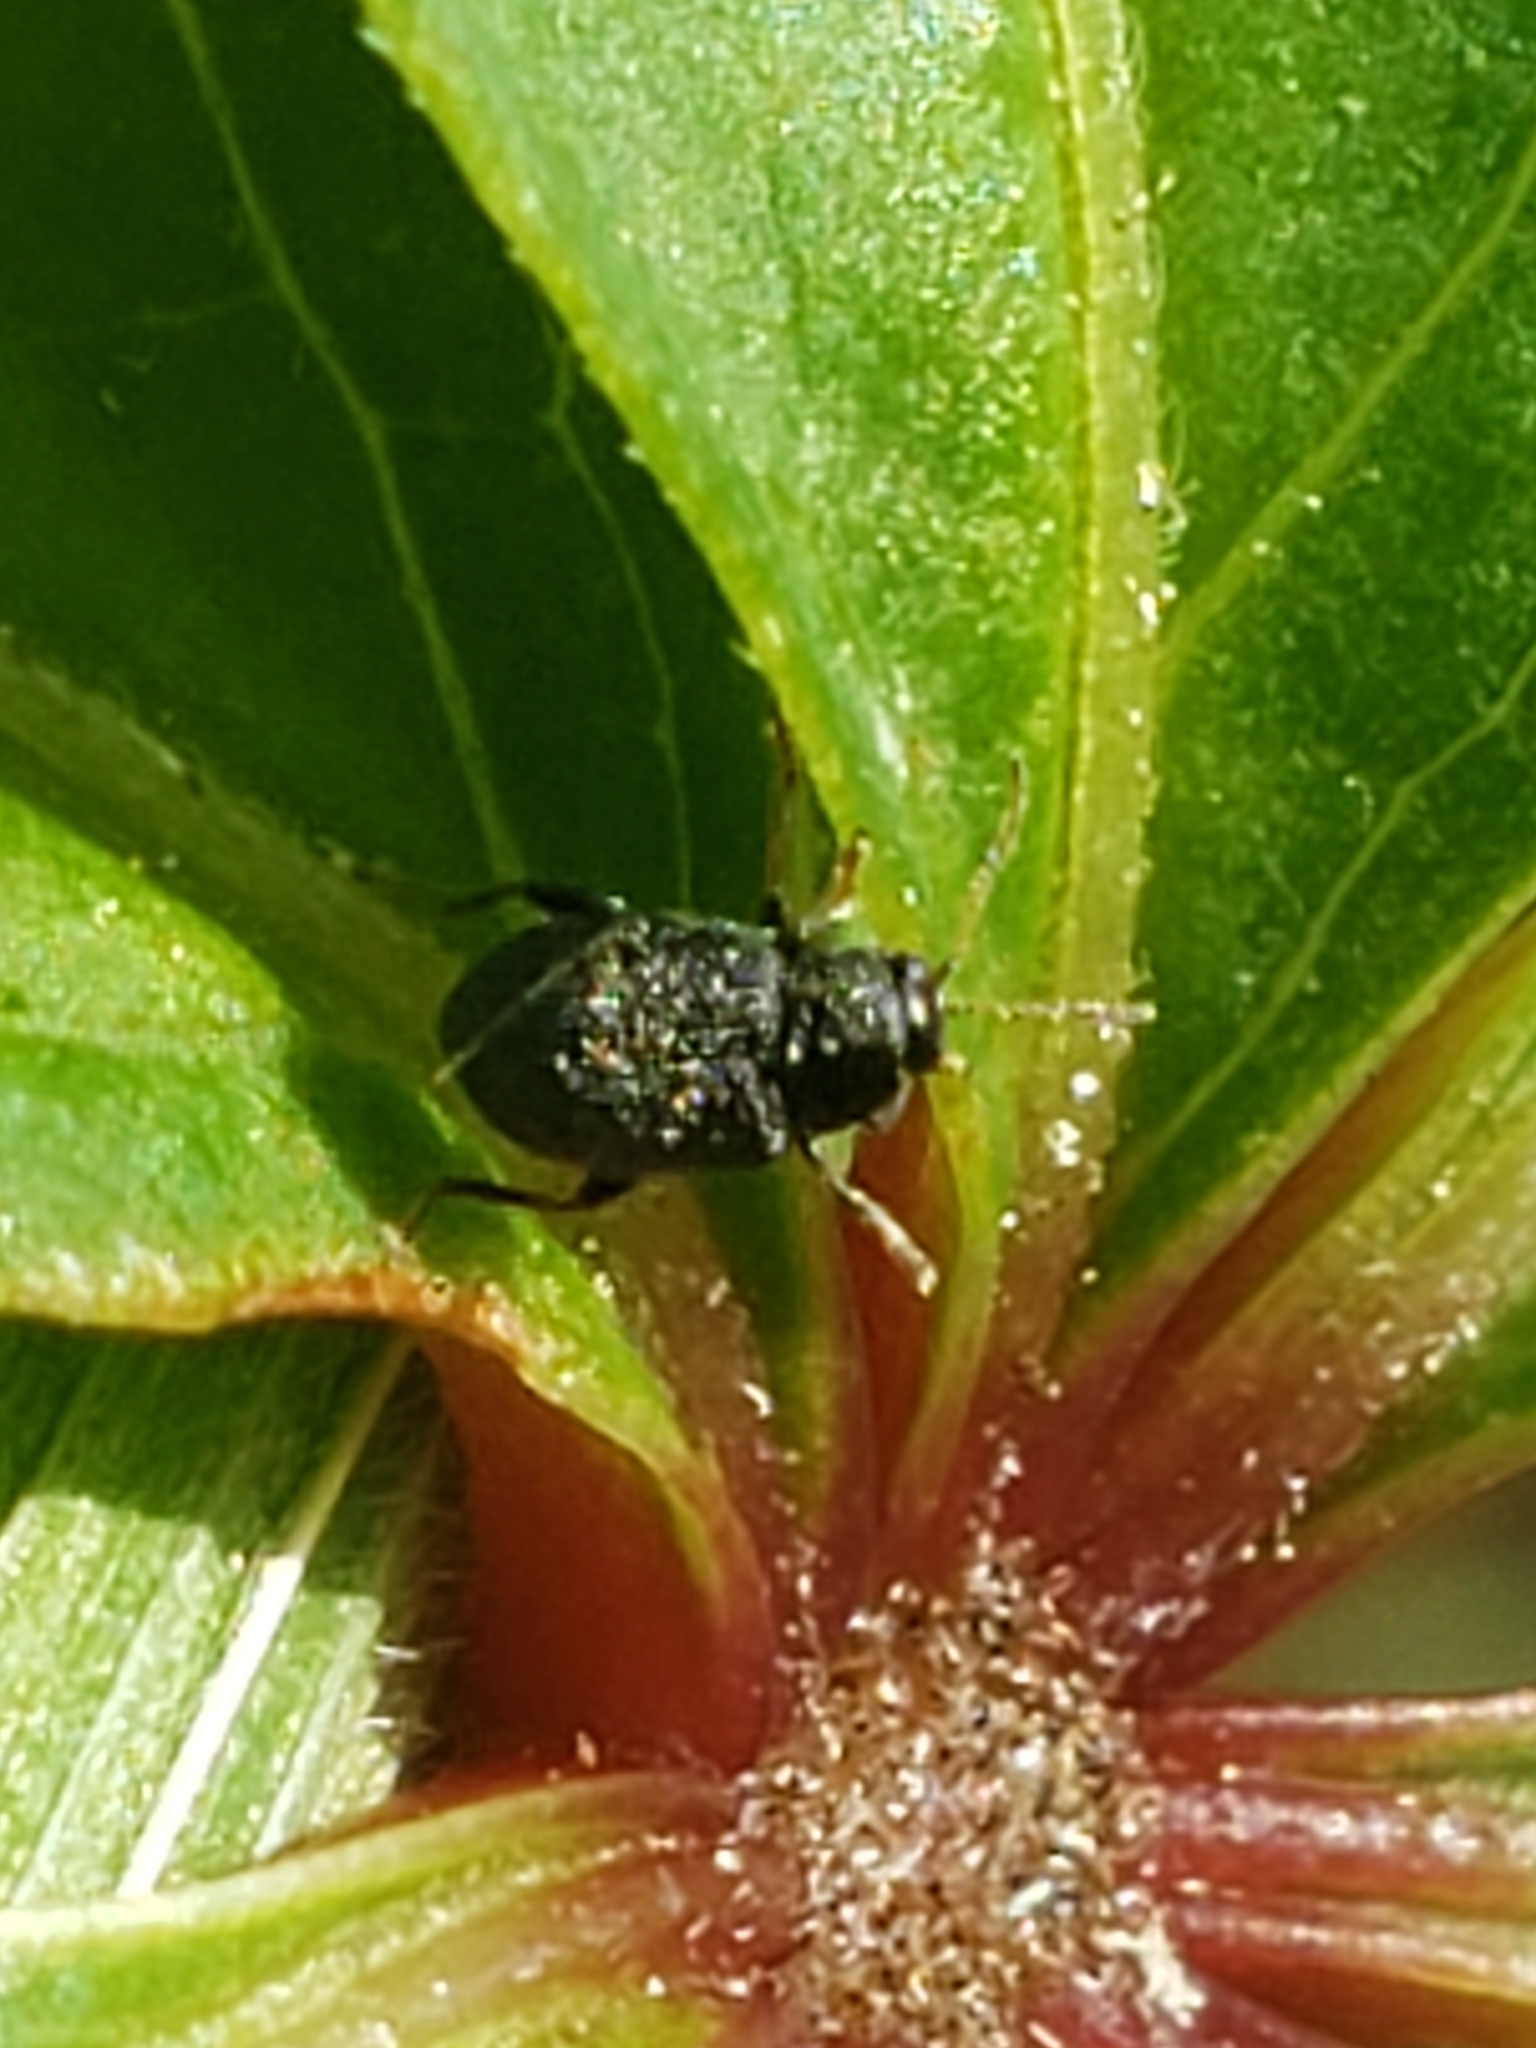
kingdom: Animalia
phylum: Arthropoda
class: Insecta
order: Coleoptera
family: Chrysomelidae
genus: Epitrix
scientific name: Epitrix fuscula
